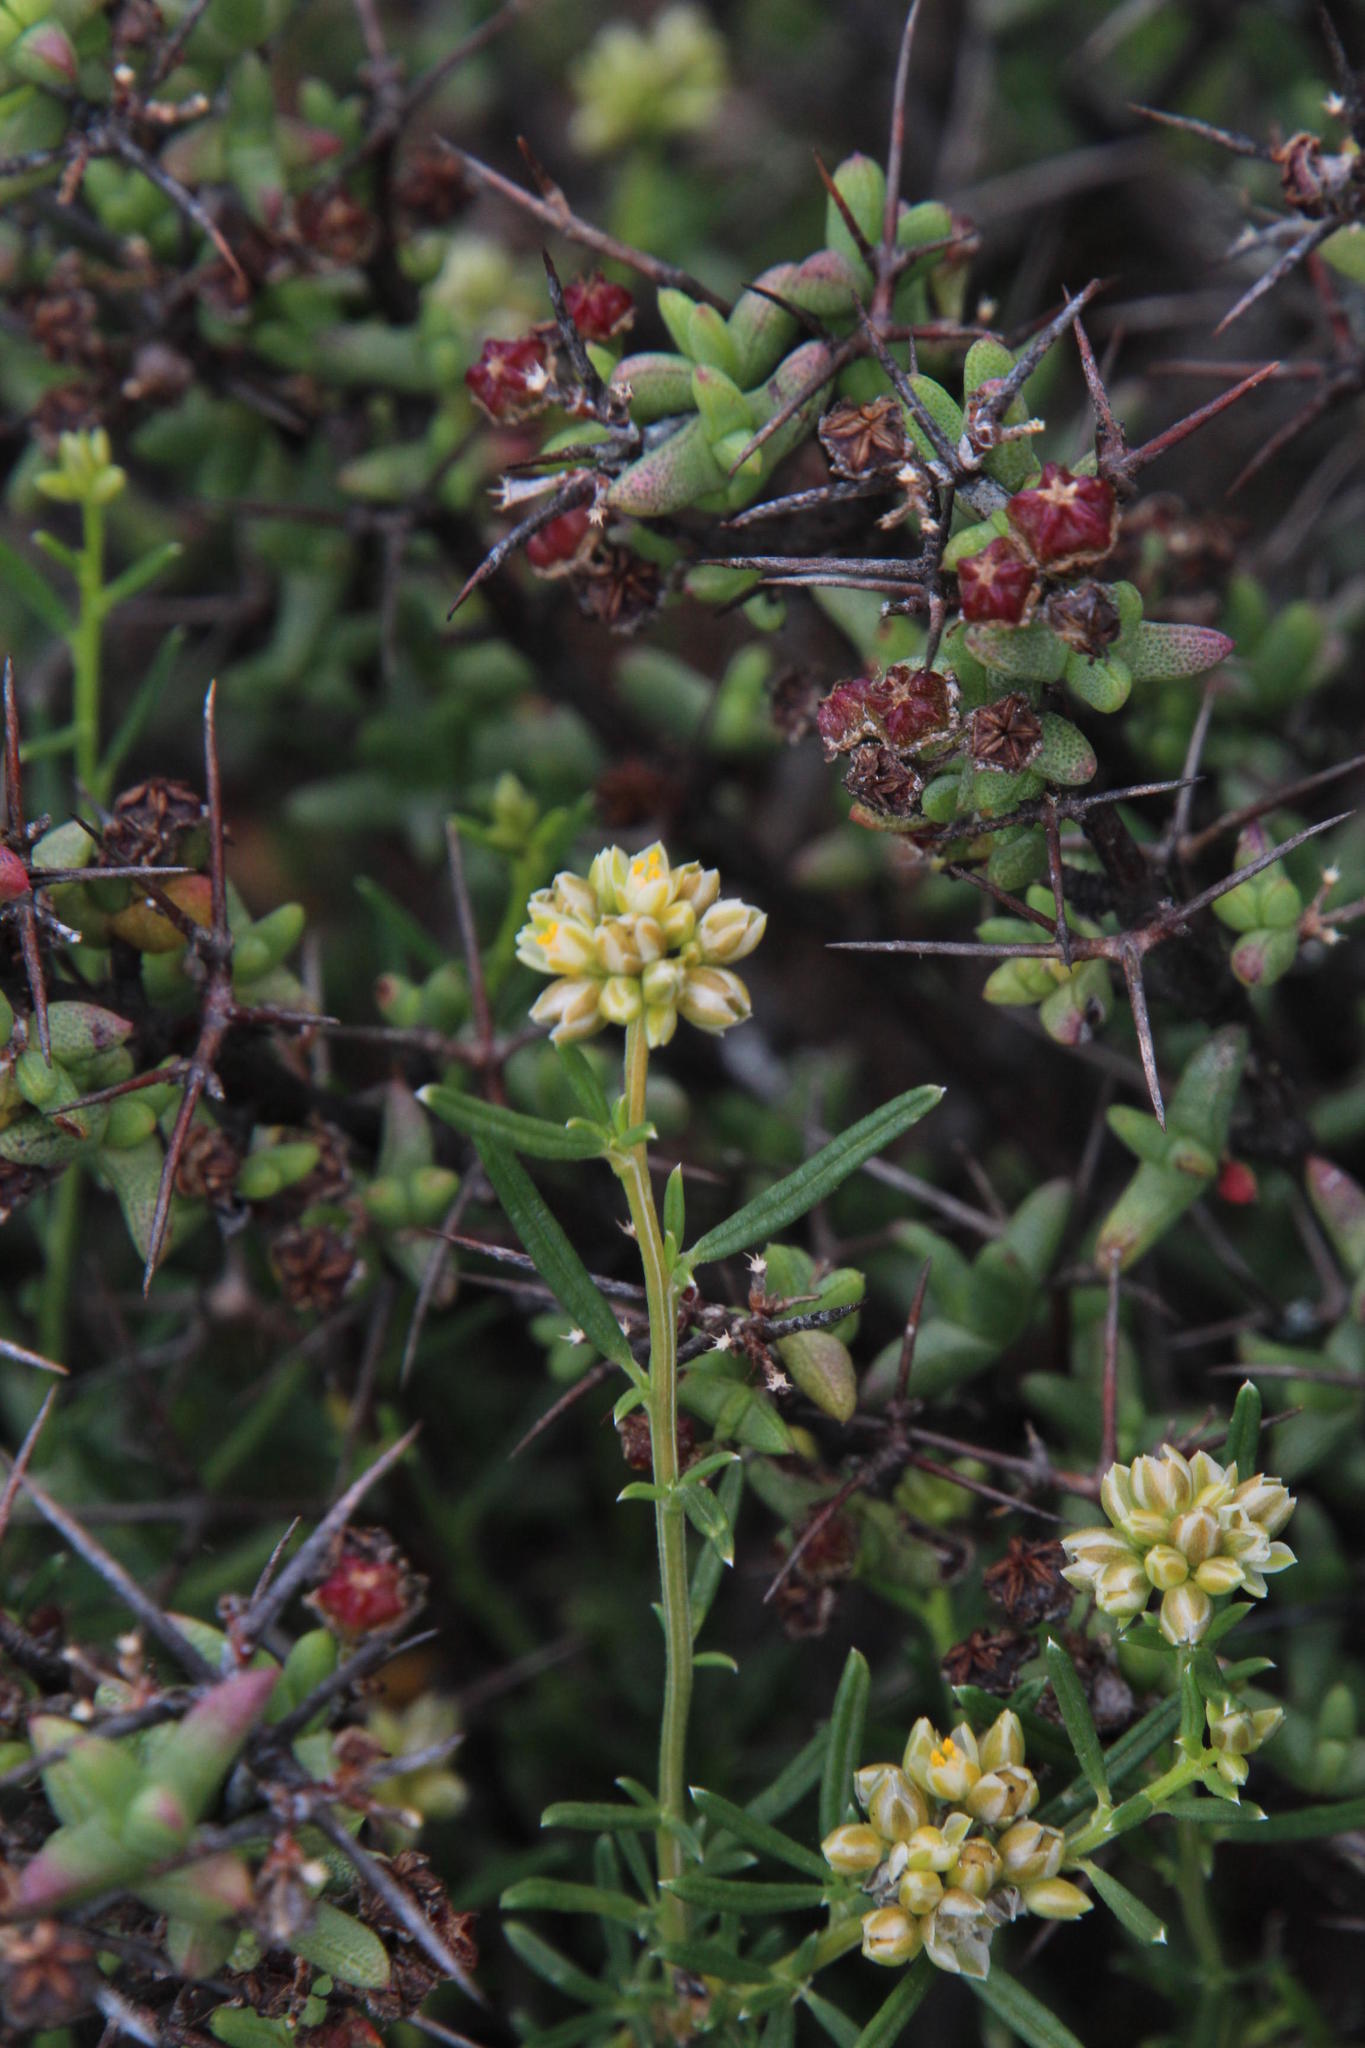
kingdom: Plantae
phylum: Tracheophyta
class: Magnoliopsida
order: Caryophyllales
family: Limeaceae
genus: Limeum
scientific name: Limeum aethiopicum
